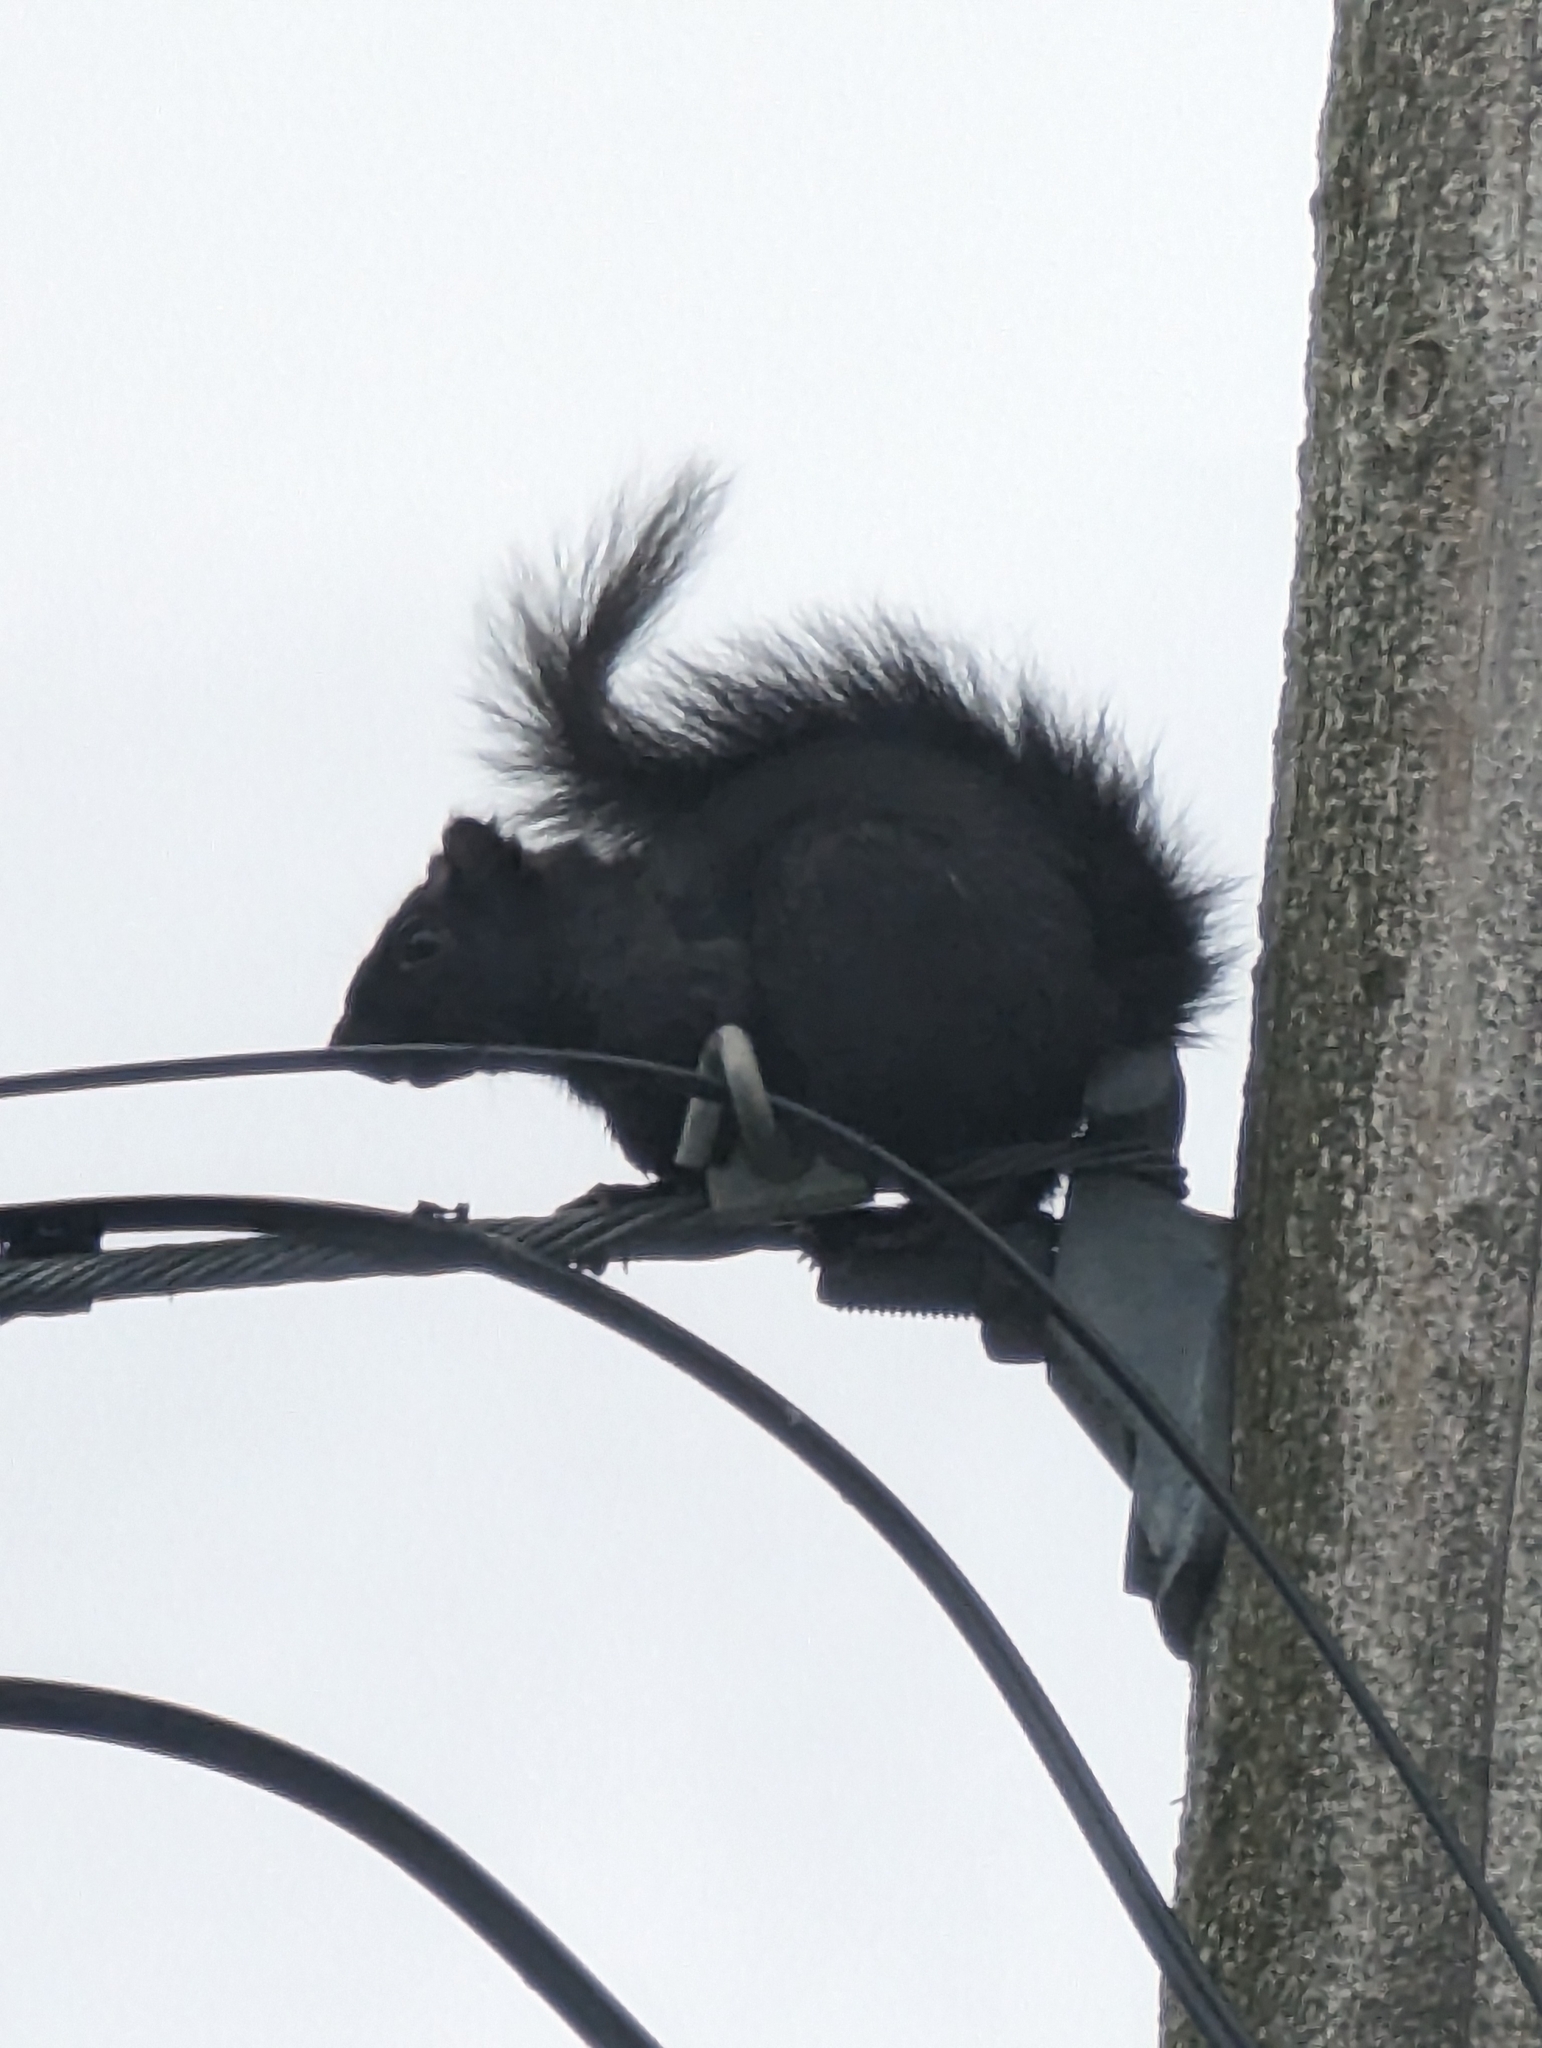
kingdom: Animalia
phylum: Chordata
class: Mammalia
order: Rodentia
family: Sciuridae
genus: Sciurus
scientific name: Sciurus carolinensis
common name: Eastern gray squirrel
